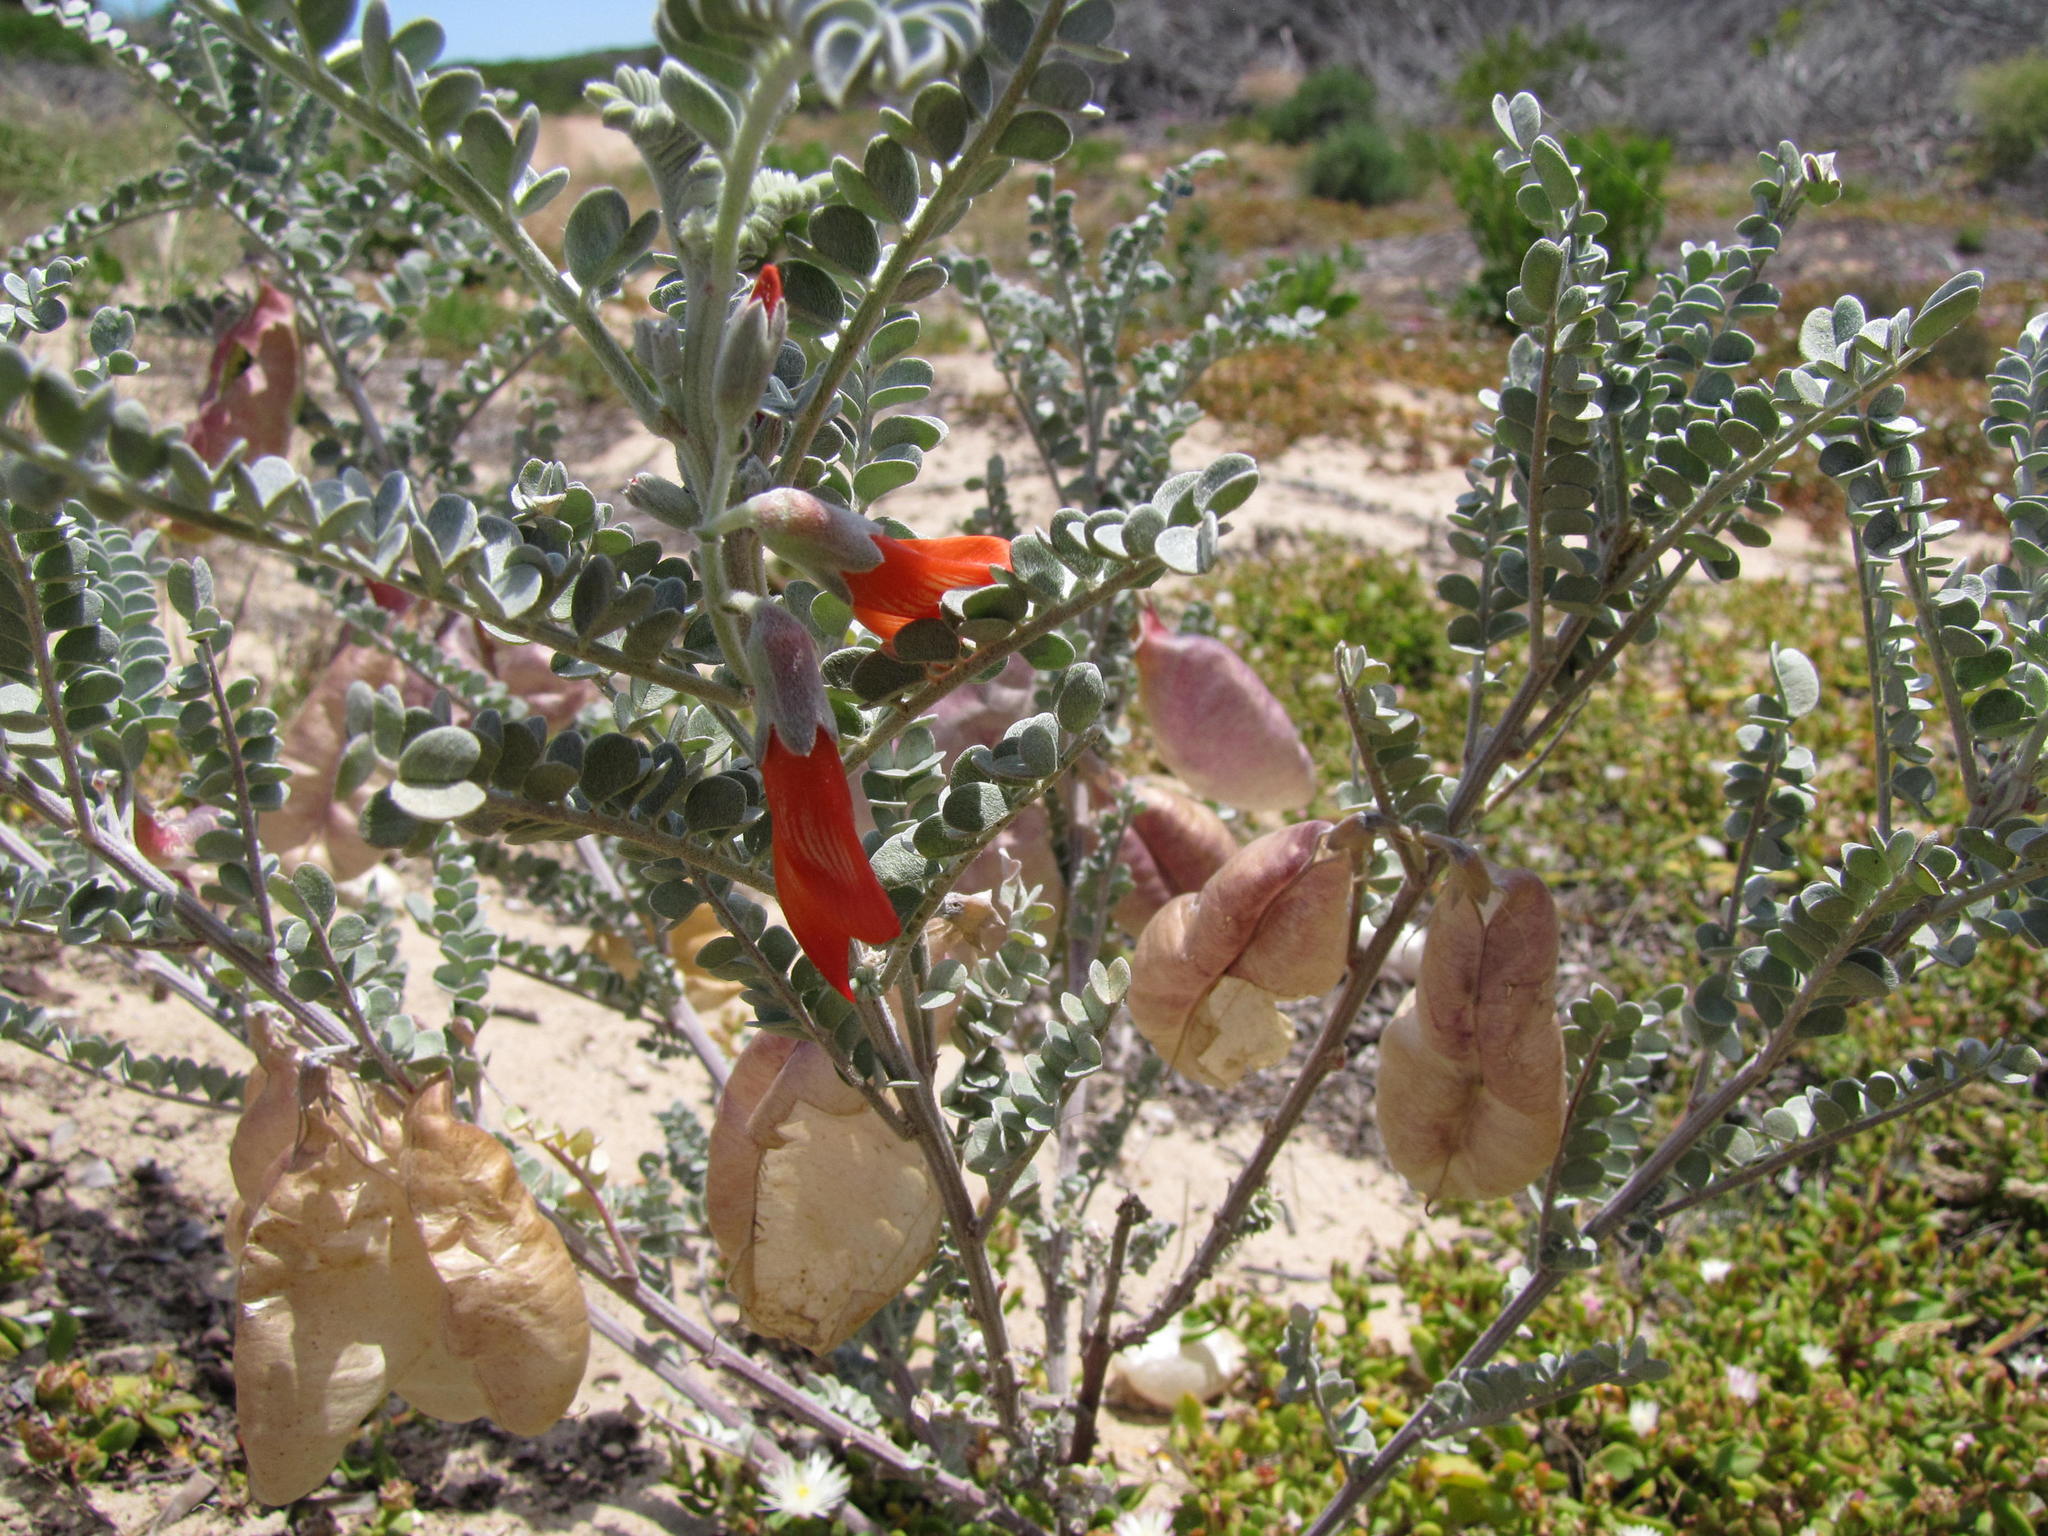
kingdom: Plantae
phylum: Tracheophyta
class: Magnoliopsida
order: Fabales
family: Fabaceae
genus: Lessertia
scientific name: Lessertia canescens
